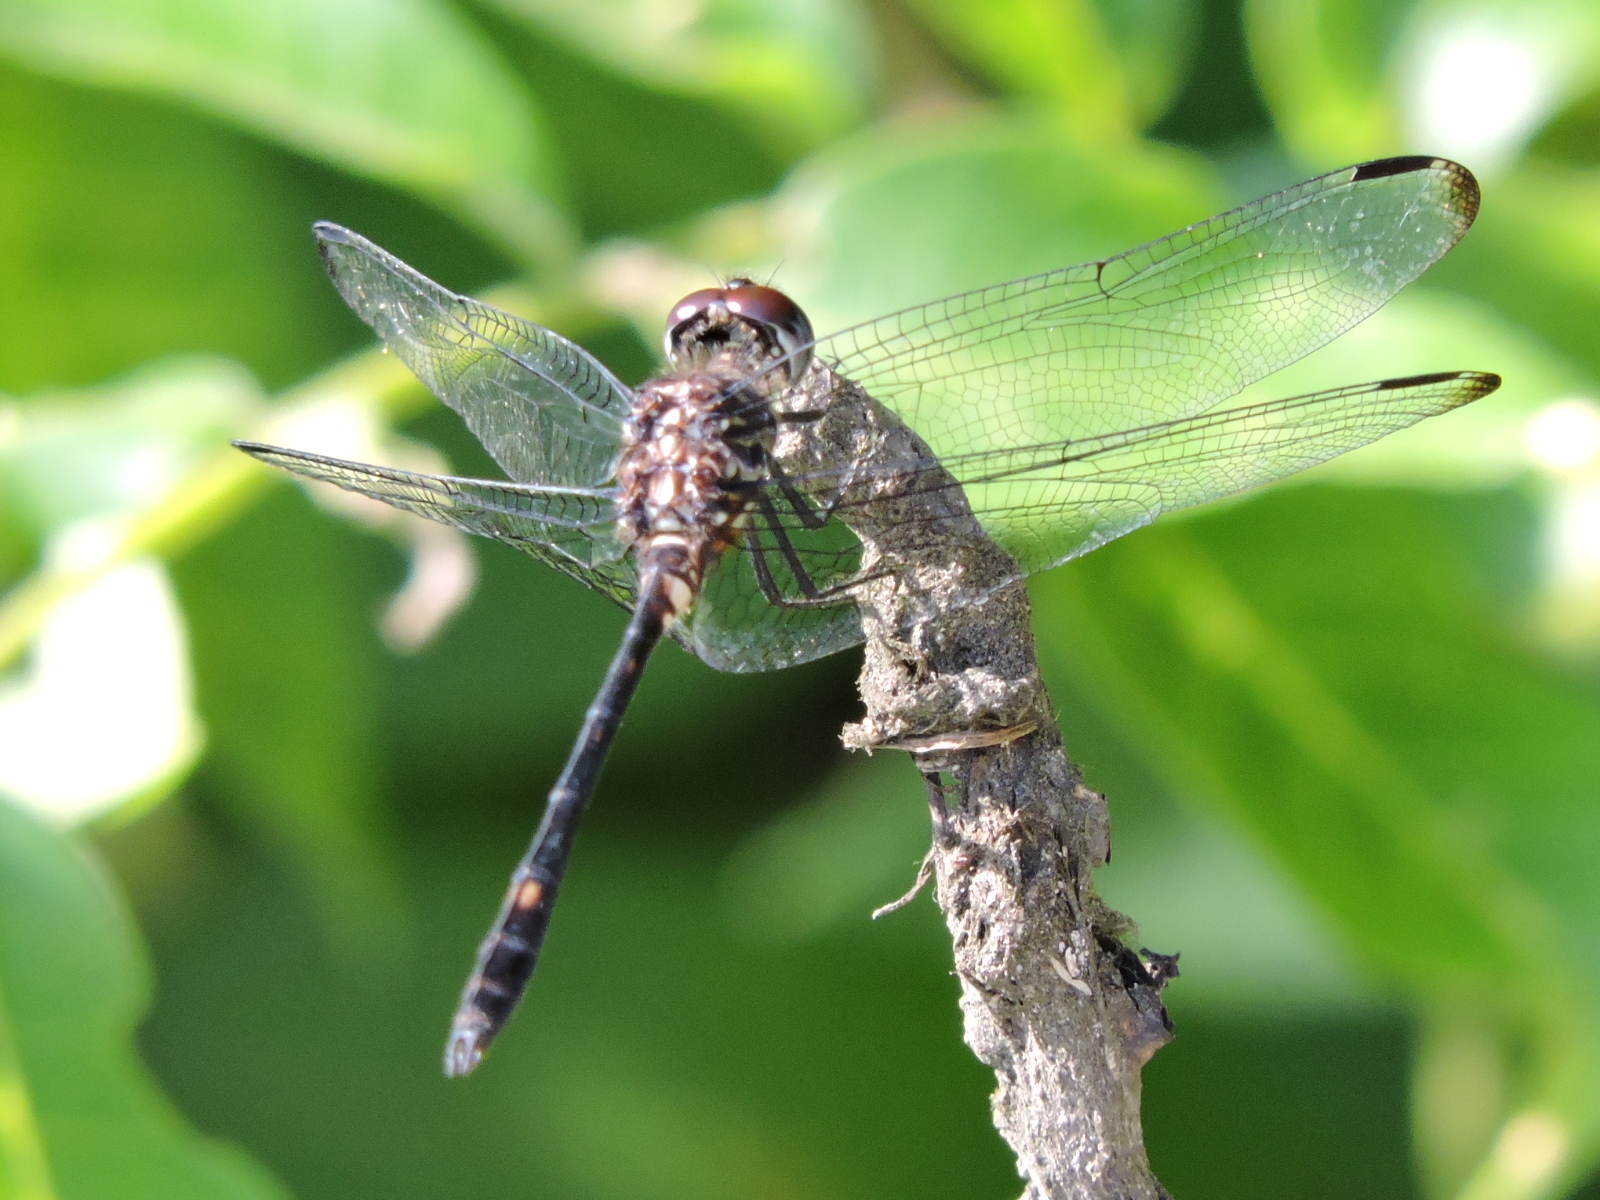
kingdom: Animalia
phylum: Arthropoda
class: Insecta
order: Odonata
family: Libellulidae
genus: Dythemis
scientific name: Dythemis velox
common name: Swift setwing
